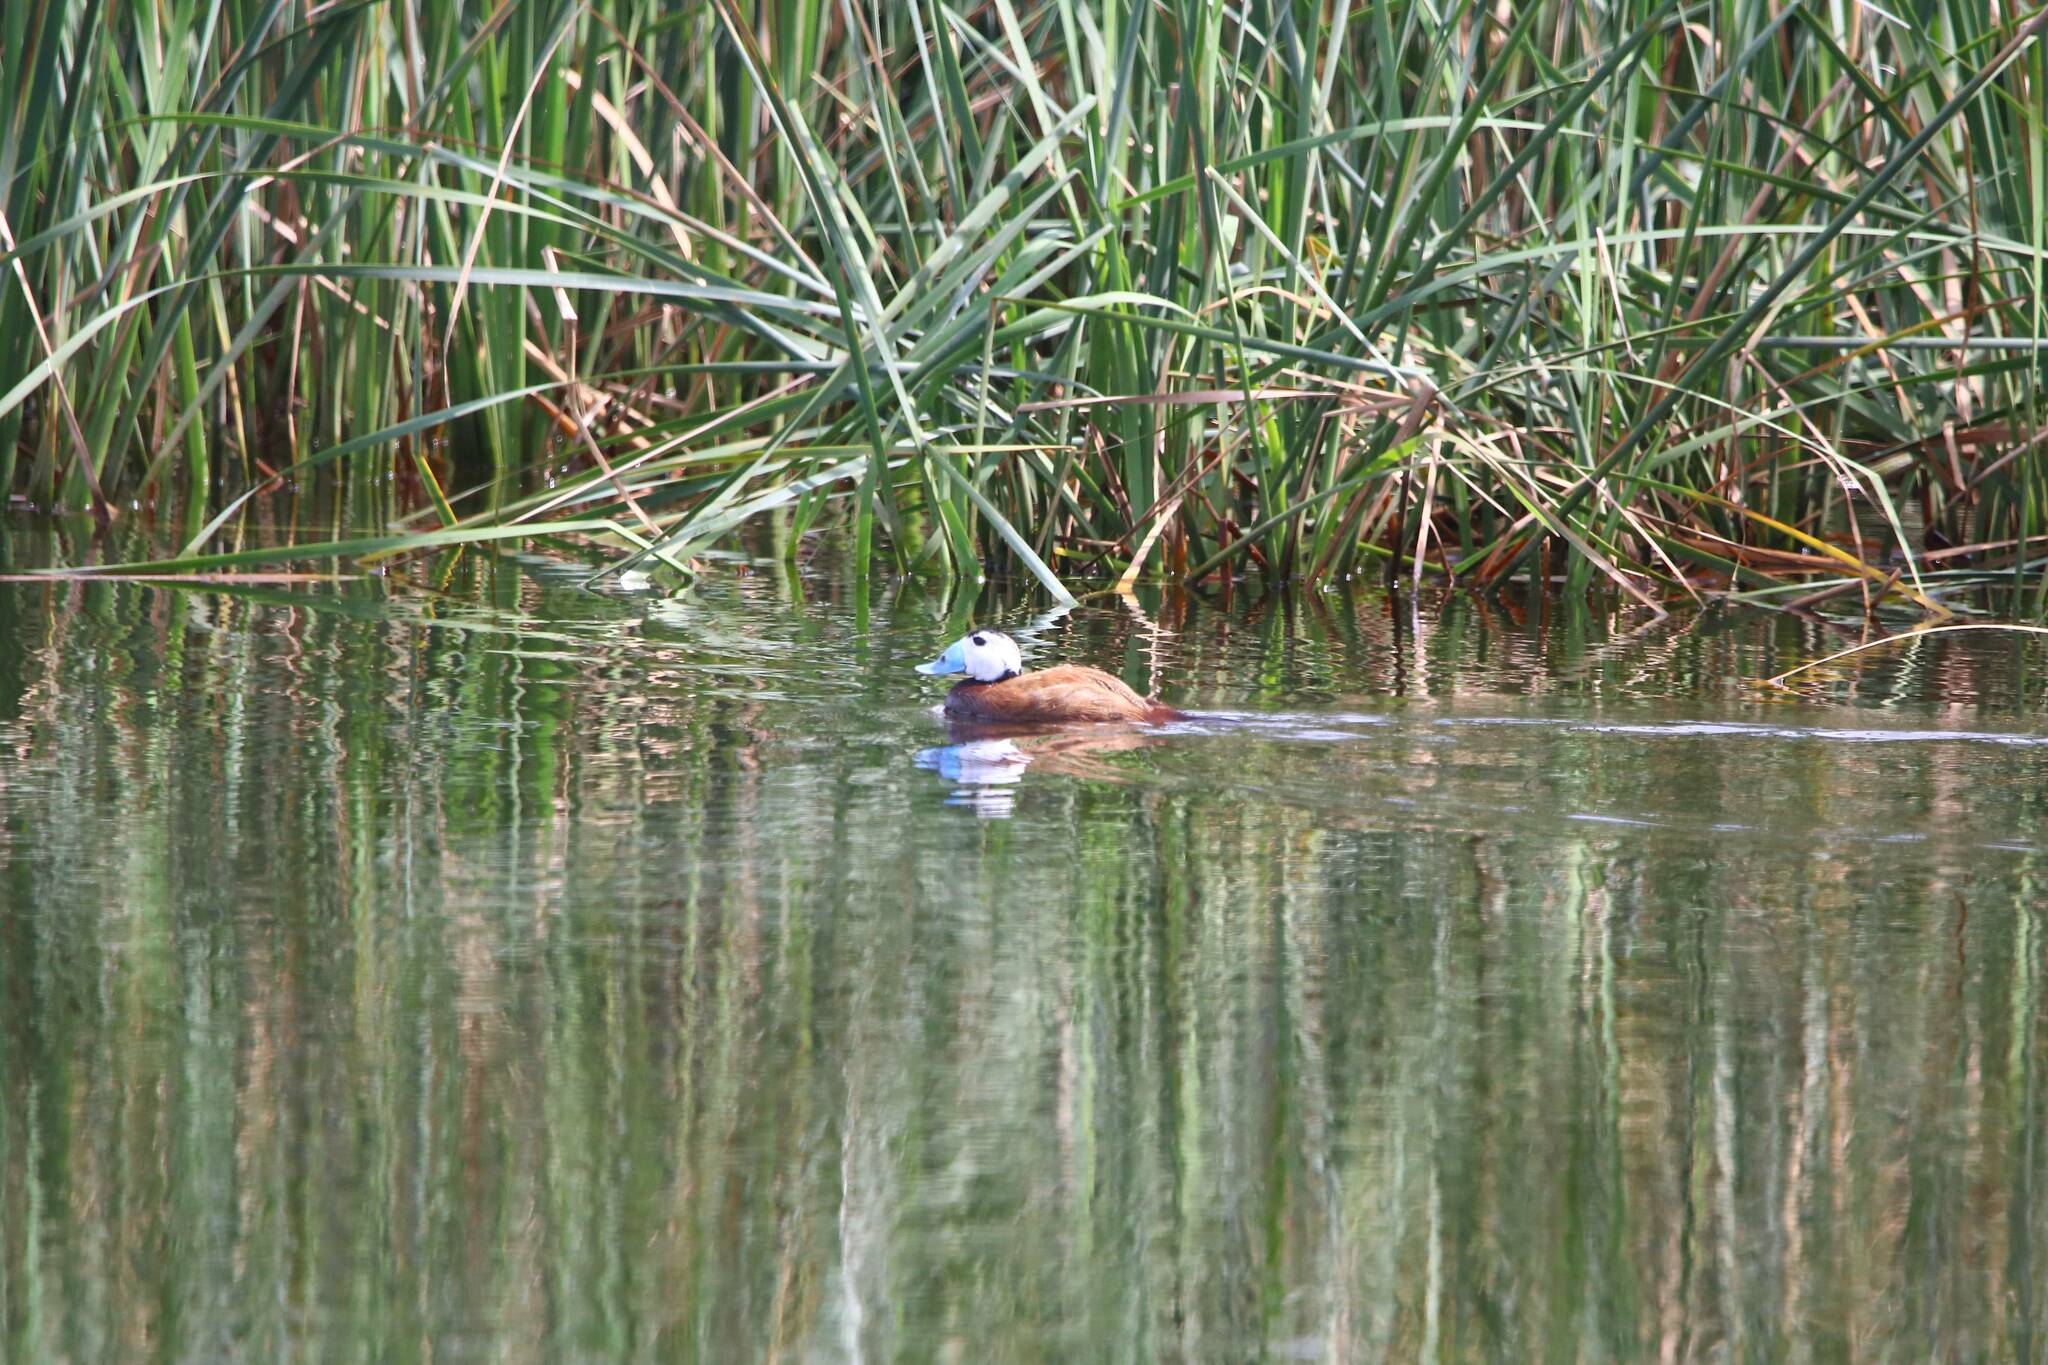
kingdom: Animalia
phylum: Chordata
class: Aves
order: Anseriformes
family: Anatidae
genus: Oxyura
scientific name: Oxyura leucocephala
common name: White-headed duck
